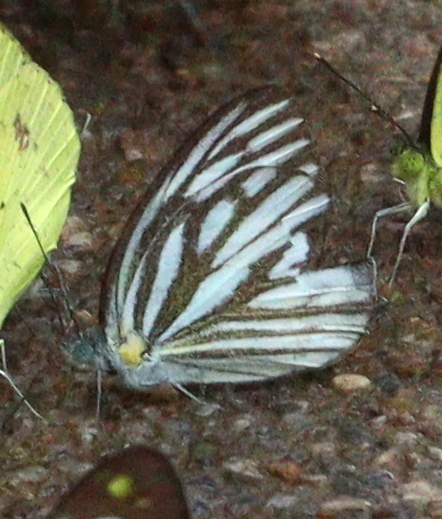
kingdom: Animalia
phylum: Arthropoda
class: Insecta
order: Lepidoptera
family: Pieridae
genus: Cepora
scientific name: Cepora nerissa
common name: Common gull
